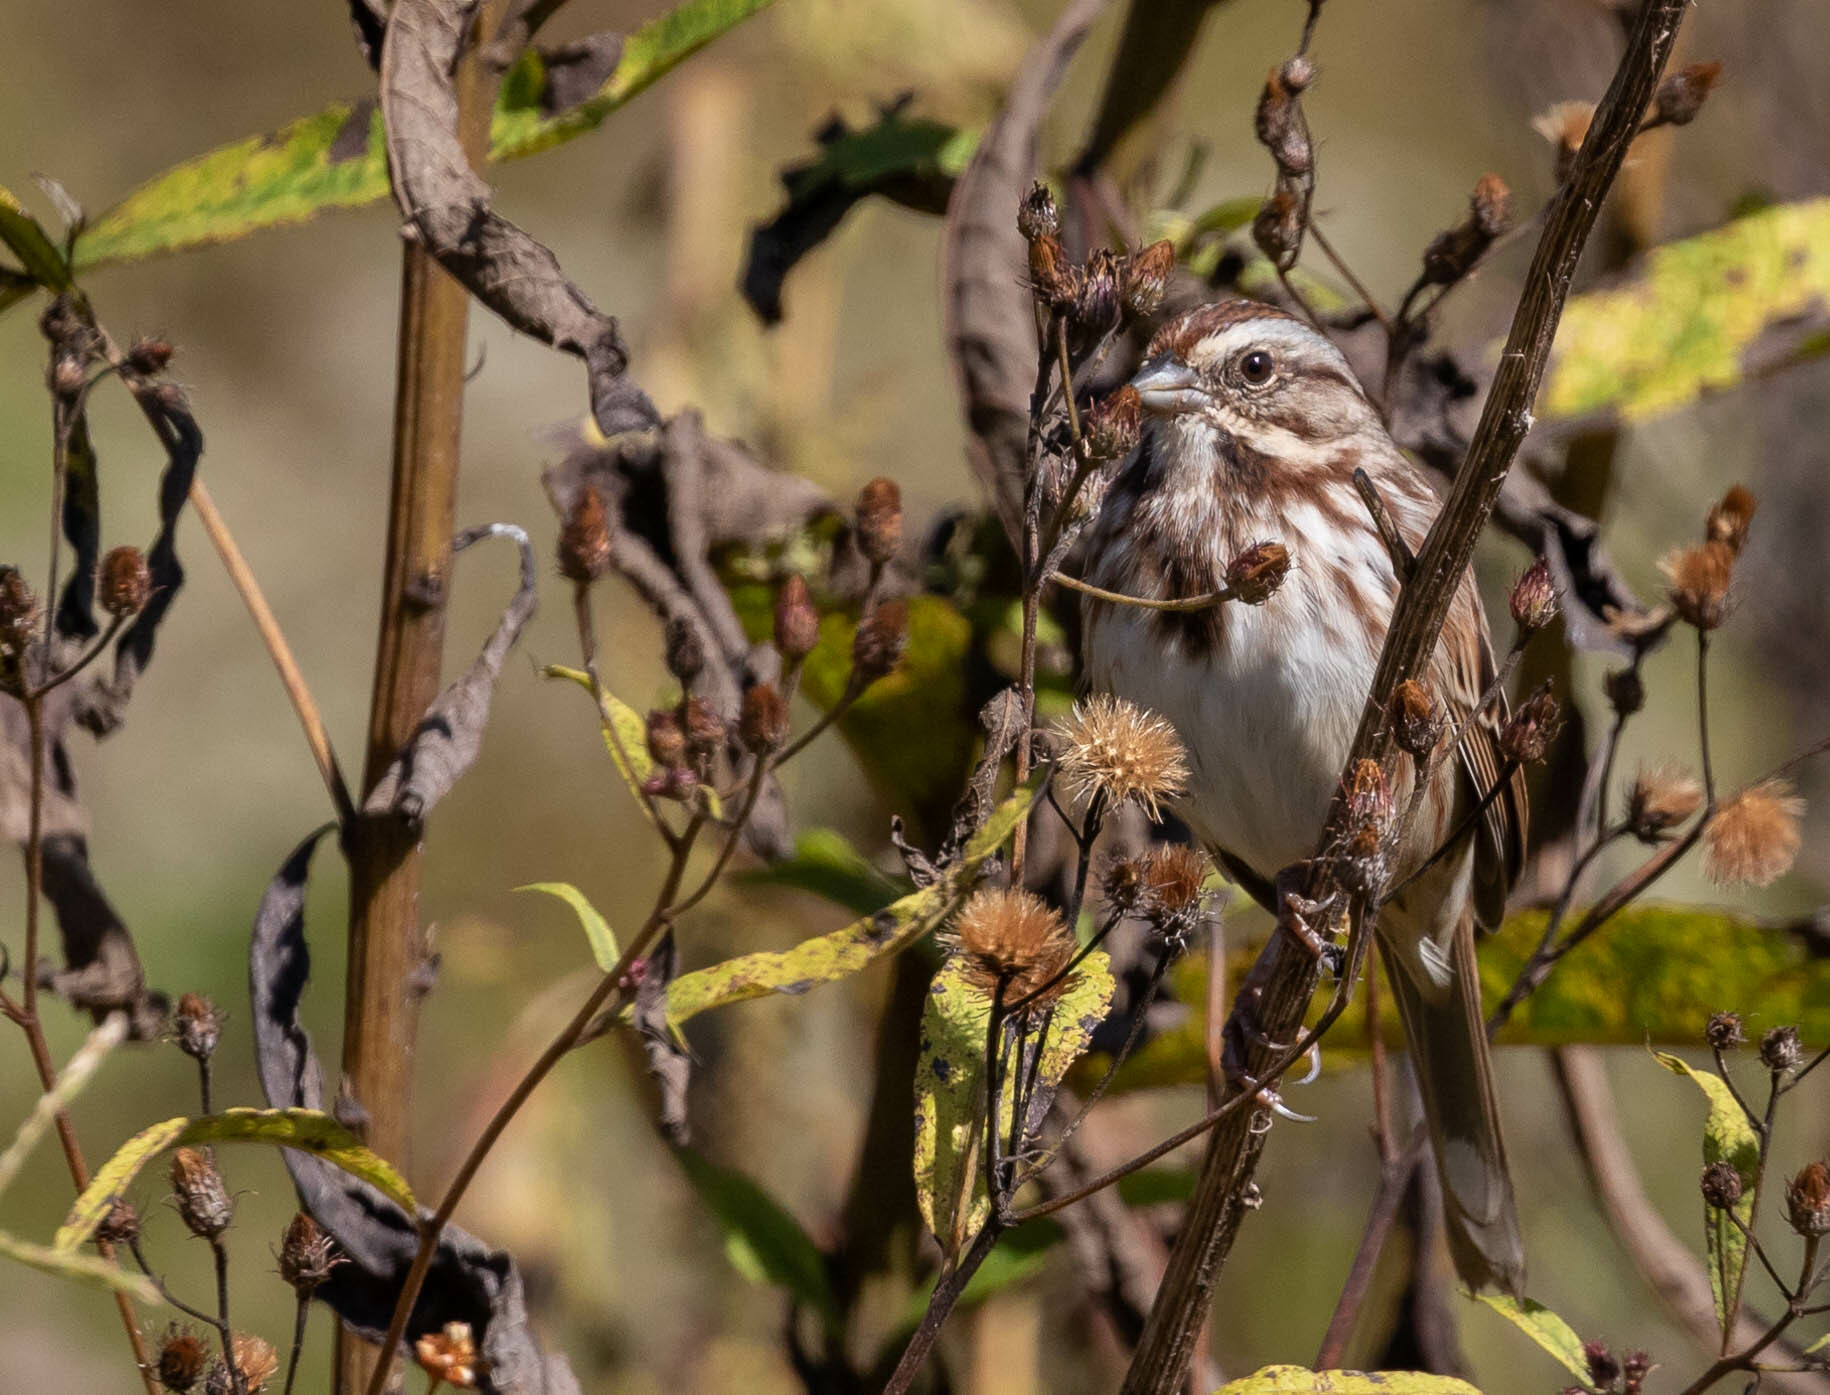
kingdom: Animalia
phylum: Chordata
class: Aves
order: Passeriformes
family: Passerellidae
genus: Melospiza
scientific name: Melospiza melodia
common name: Song sparrow
